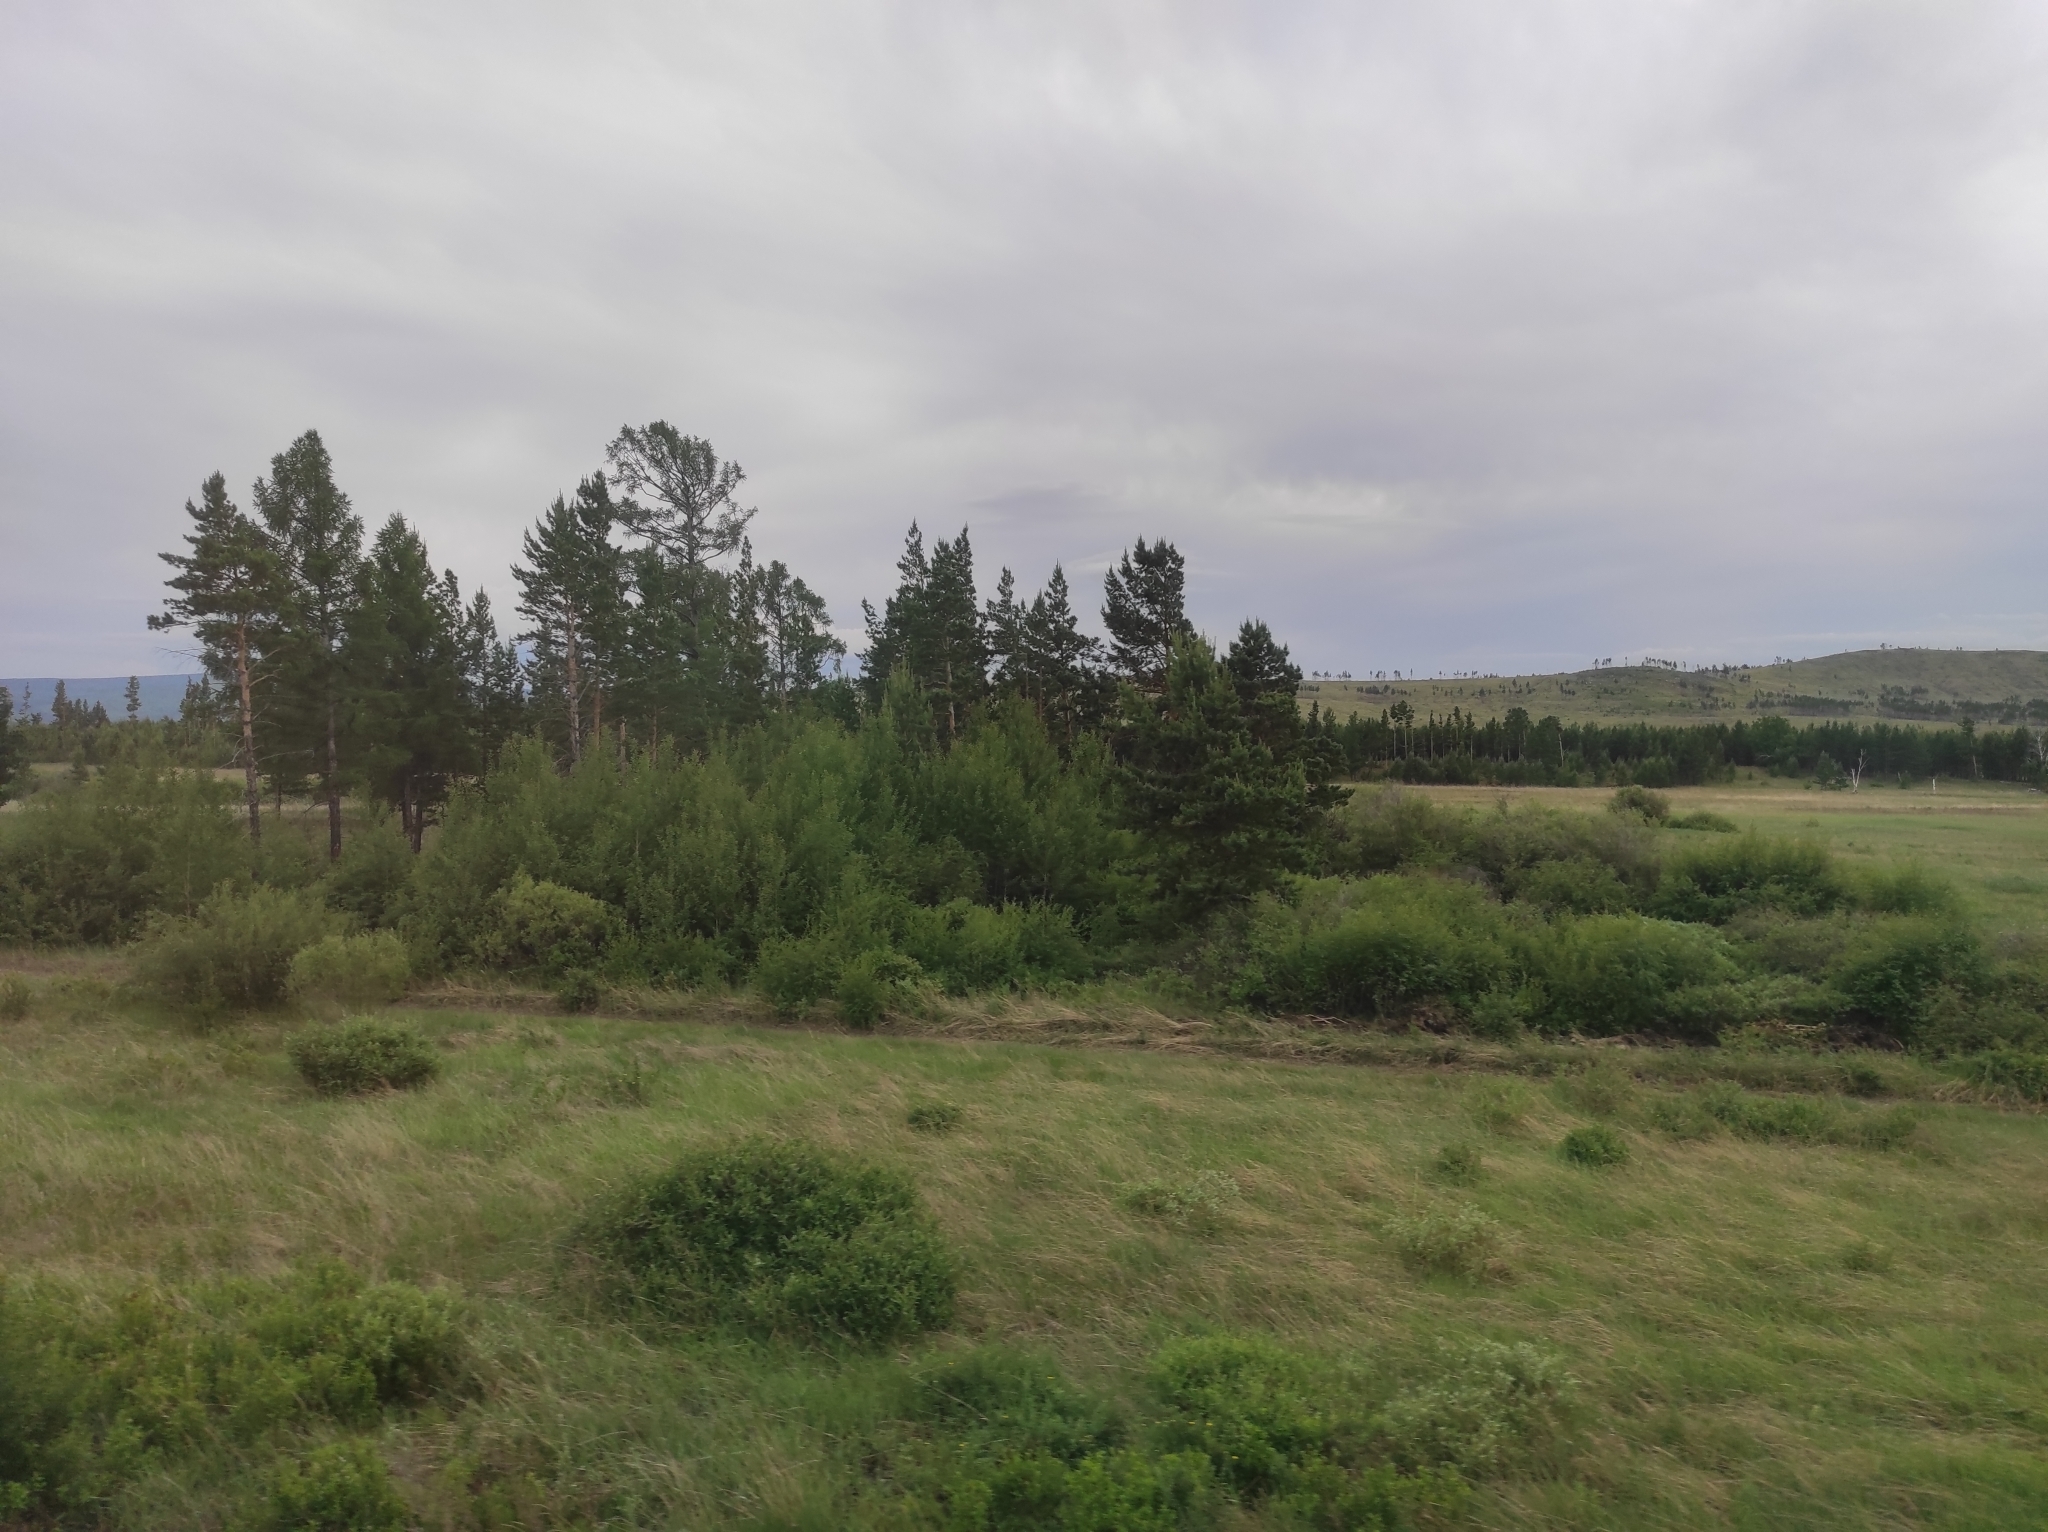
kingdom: Plantae
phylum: Tracheophyta
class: Pinopsida
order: Pinales
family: Pinaceae
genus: Pinus
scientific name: Pinus sylvestris
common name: Scots pine
